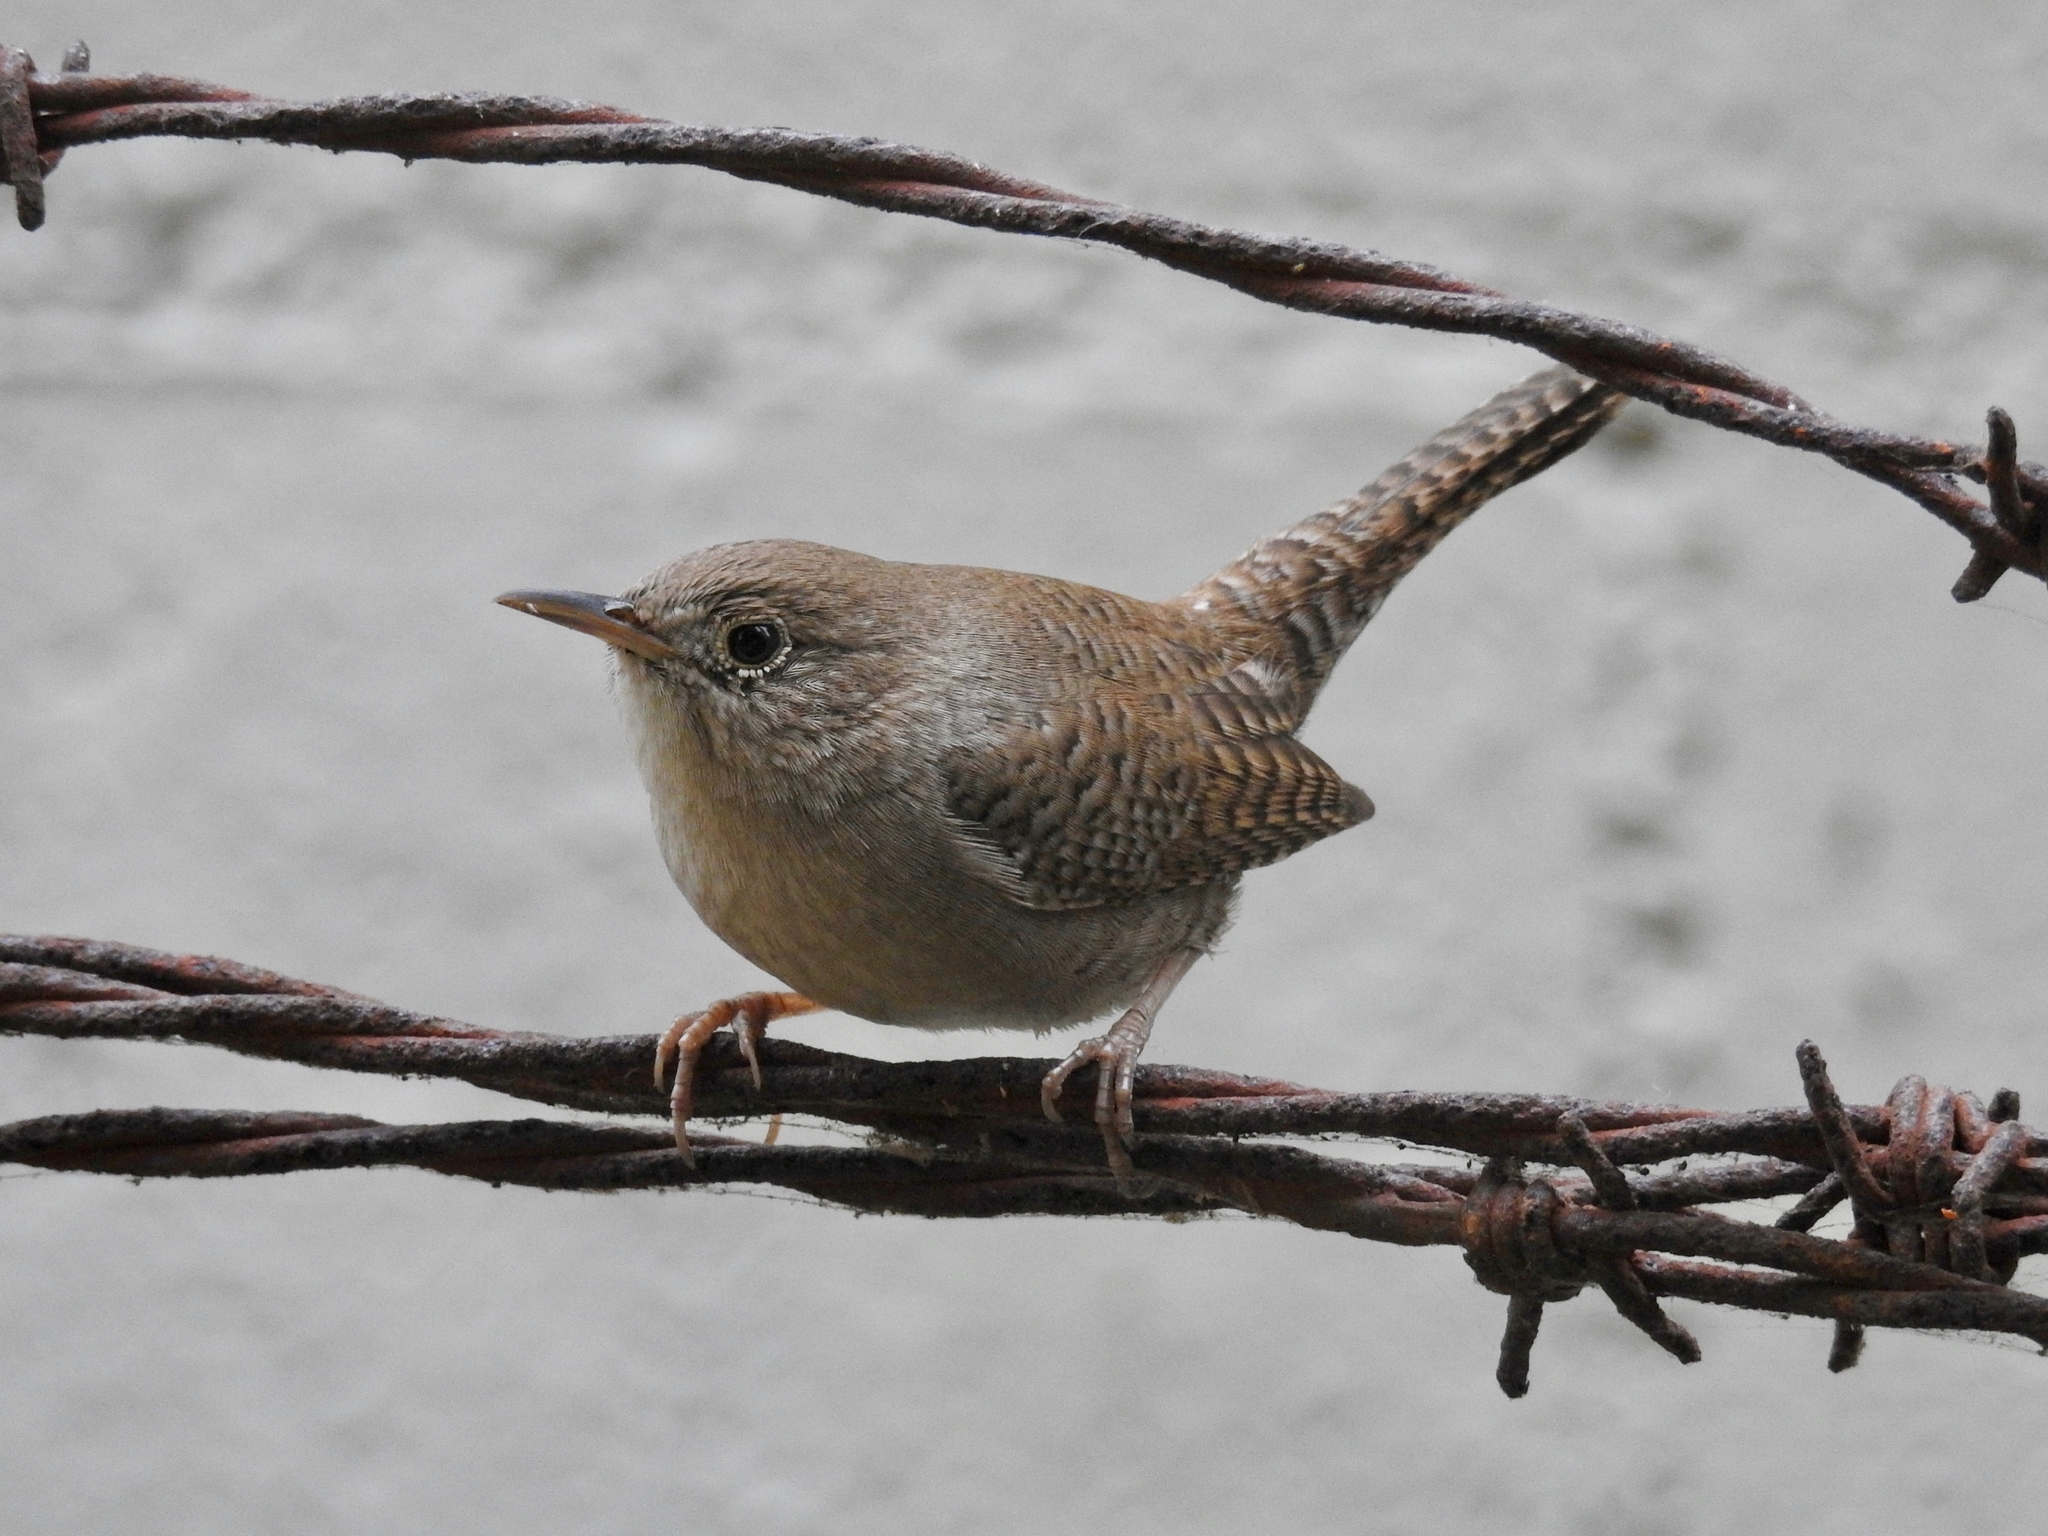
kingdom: Animalia
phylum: Chordata
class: Aves
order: Passeriformes
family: Troglodytidae
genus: Troglodytes
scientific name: Troglodytes aedon
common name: House wren
